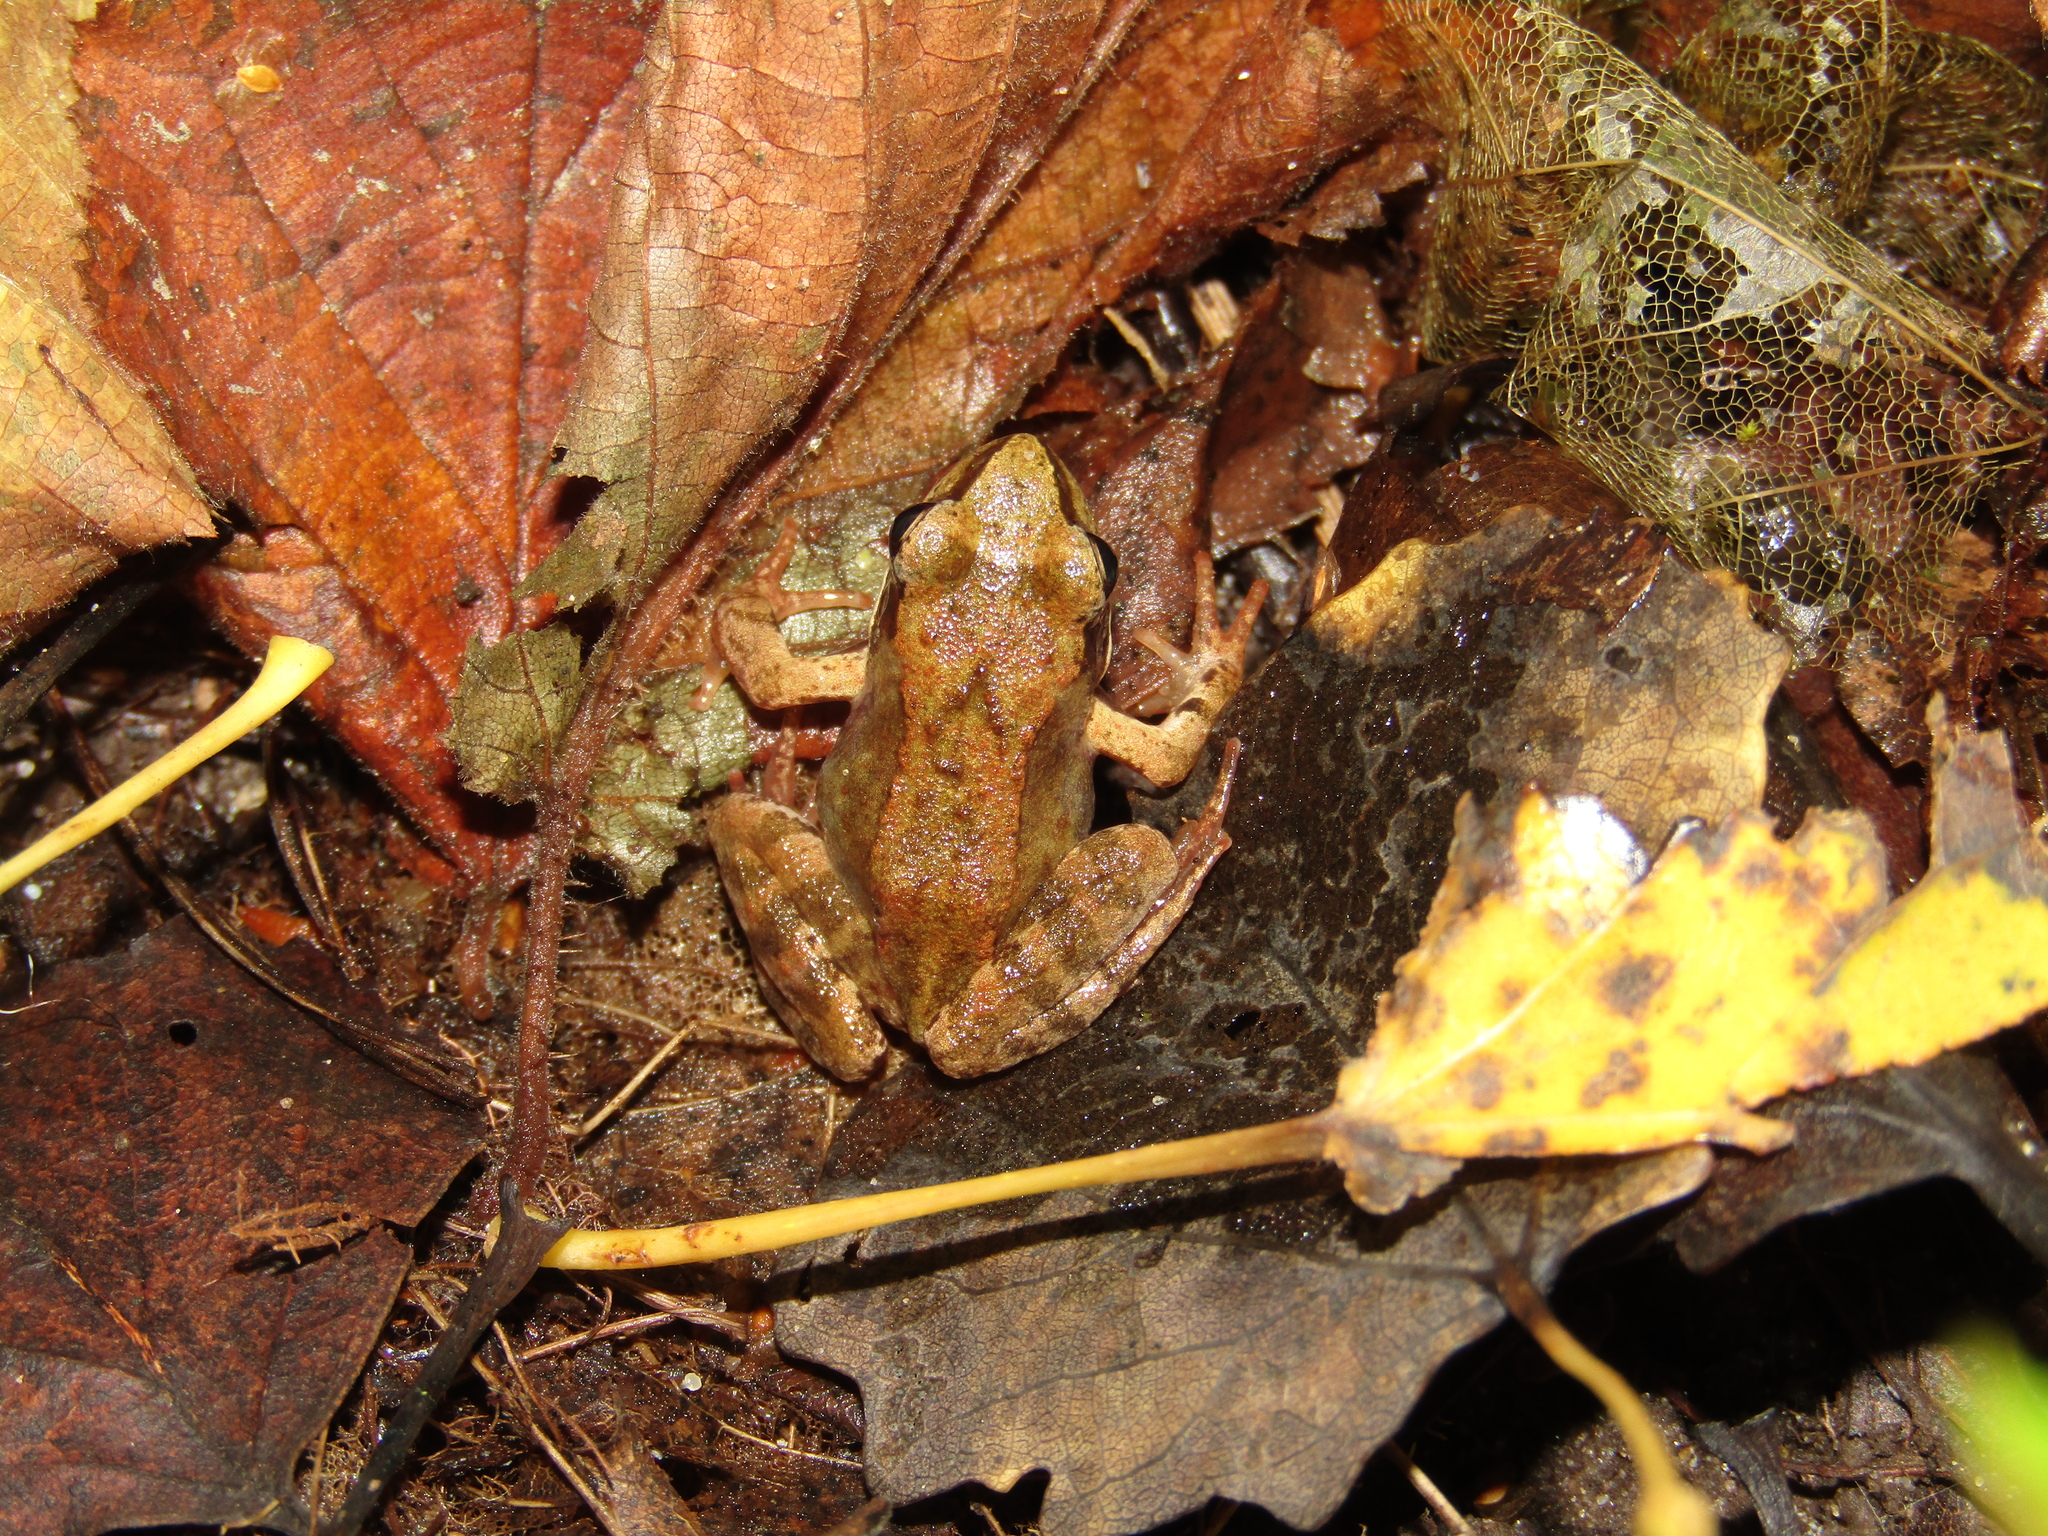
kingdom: Animalia
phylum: Chordata
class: Amphibia
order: Anura
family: Ranidae
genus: Rana
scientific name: Rana temporaria
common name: Common frog
